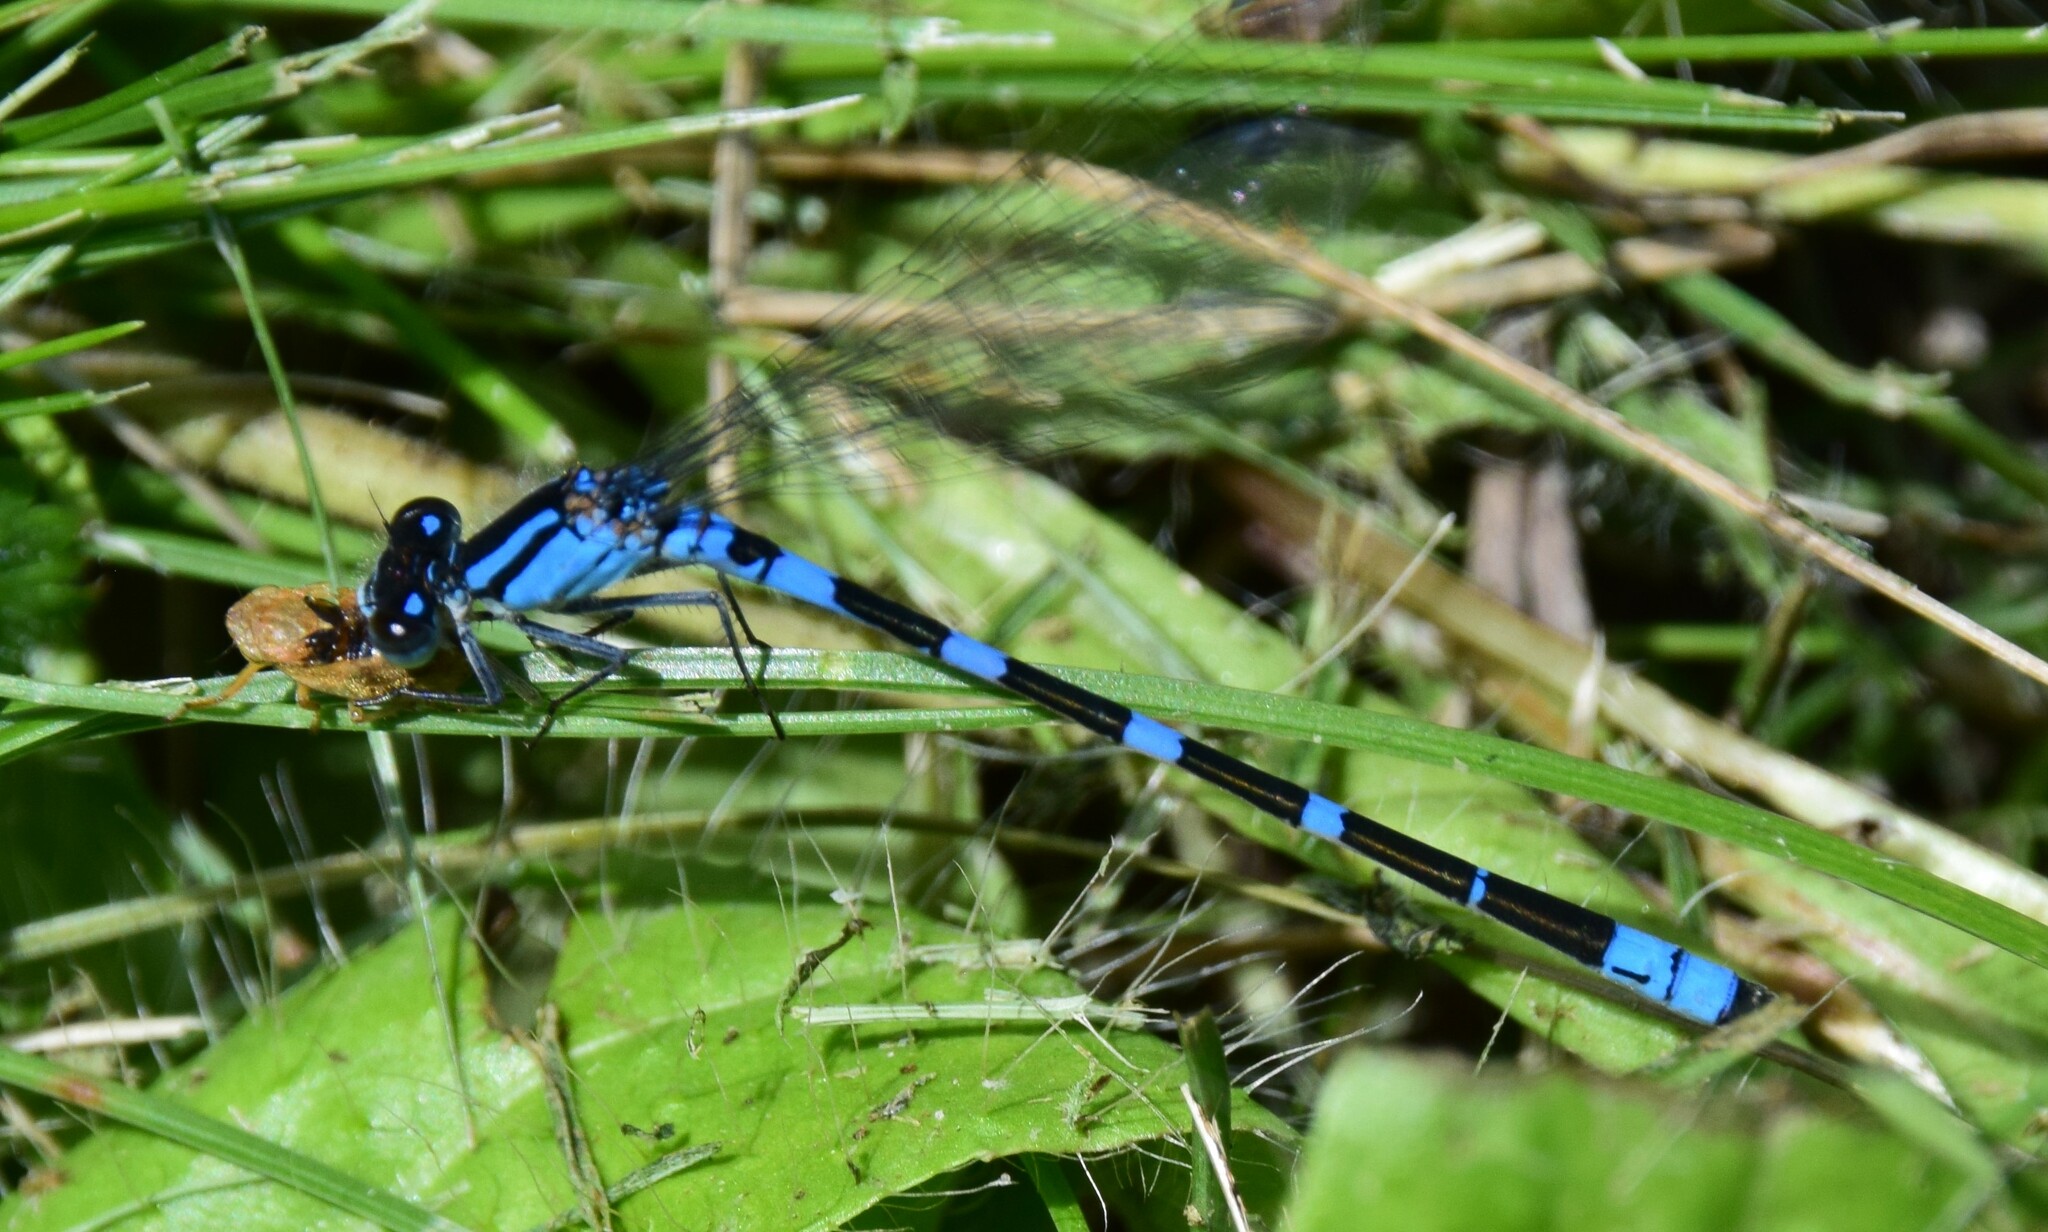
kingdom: Animalia
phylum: Arthropoda
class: Insecta
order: Odonata
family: Coenagrionidae
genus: Enallagma
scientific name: Enallagma carunculatum
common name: Tule bluet
